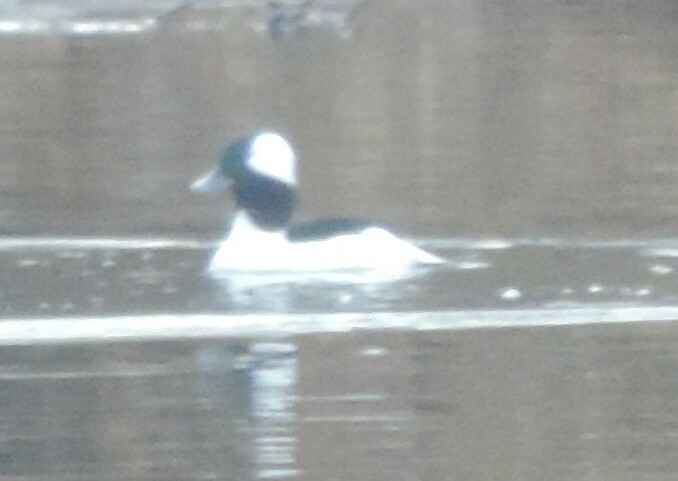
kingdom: Animalia
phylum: Chordata
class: Aves
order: Anseriformes
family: Anatidae
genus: Bucephala
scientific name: Bucephala albeola
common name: Bufflehead
